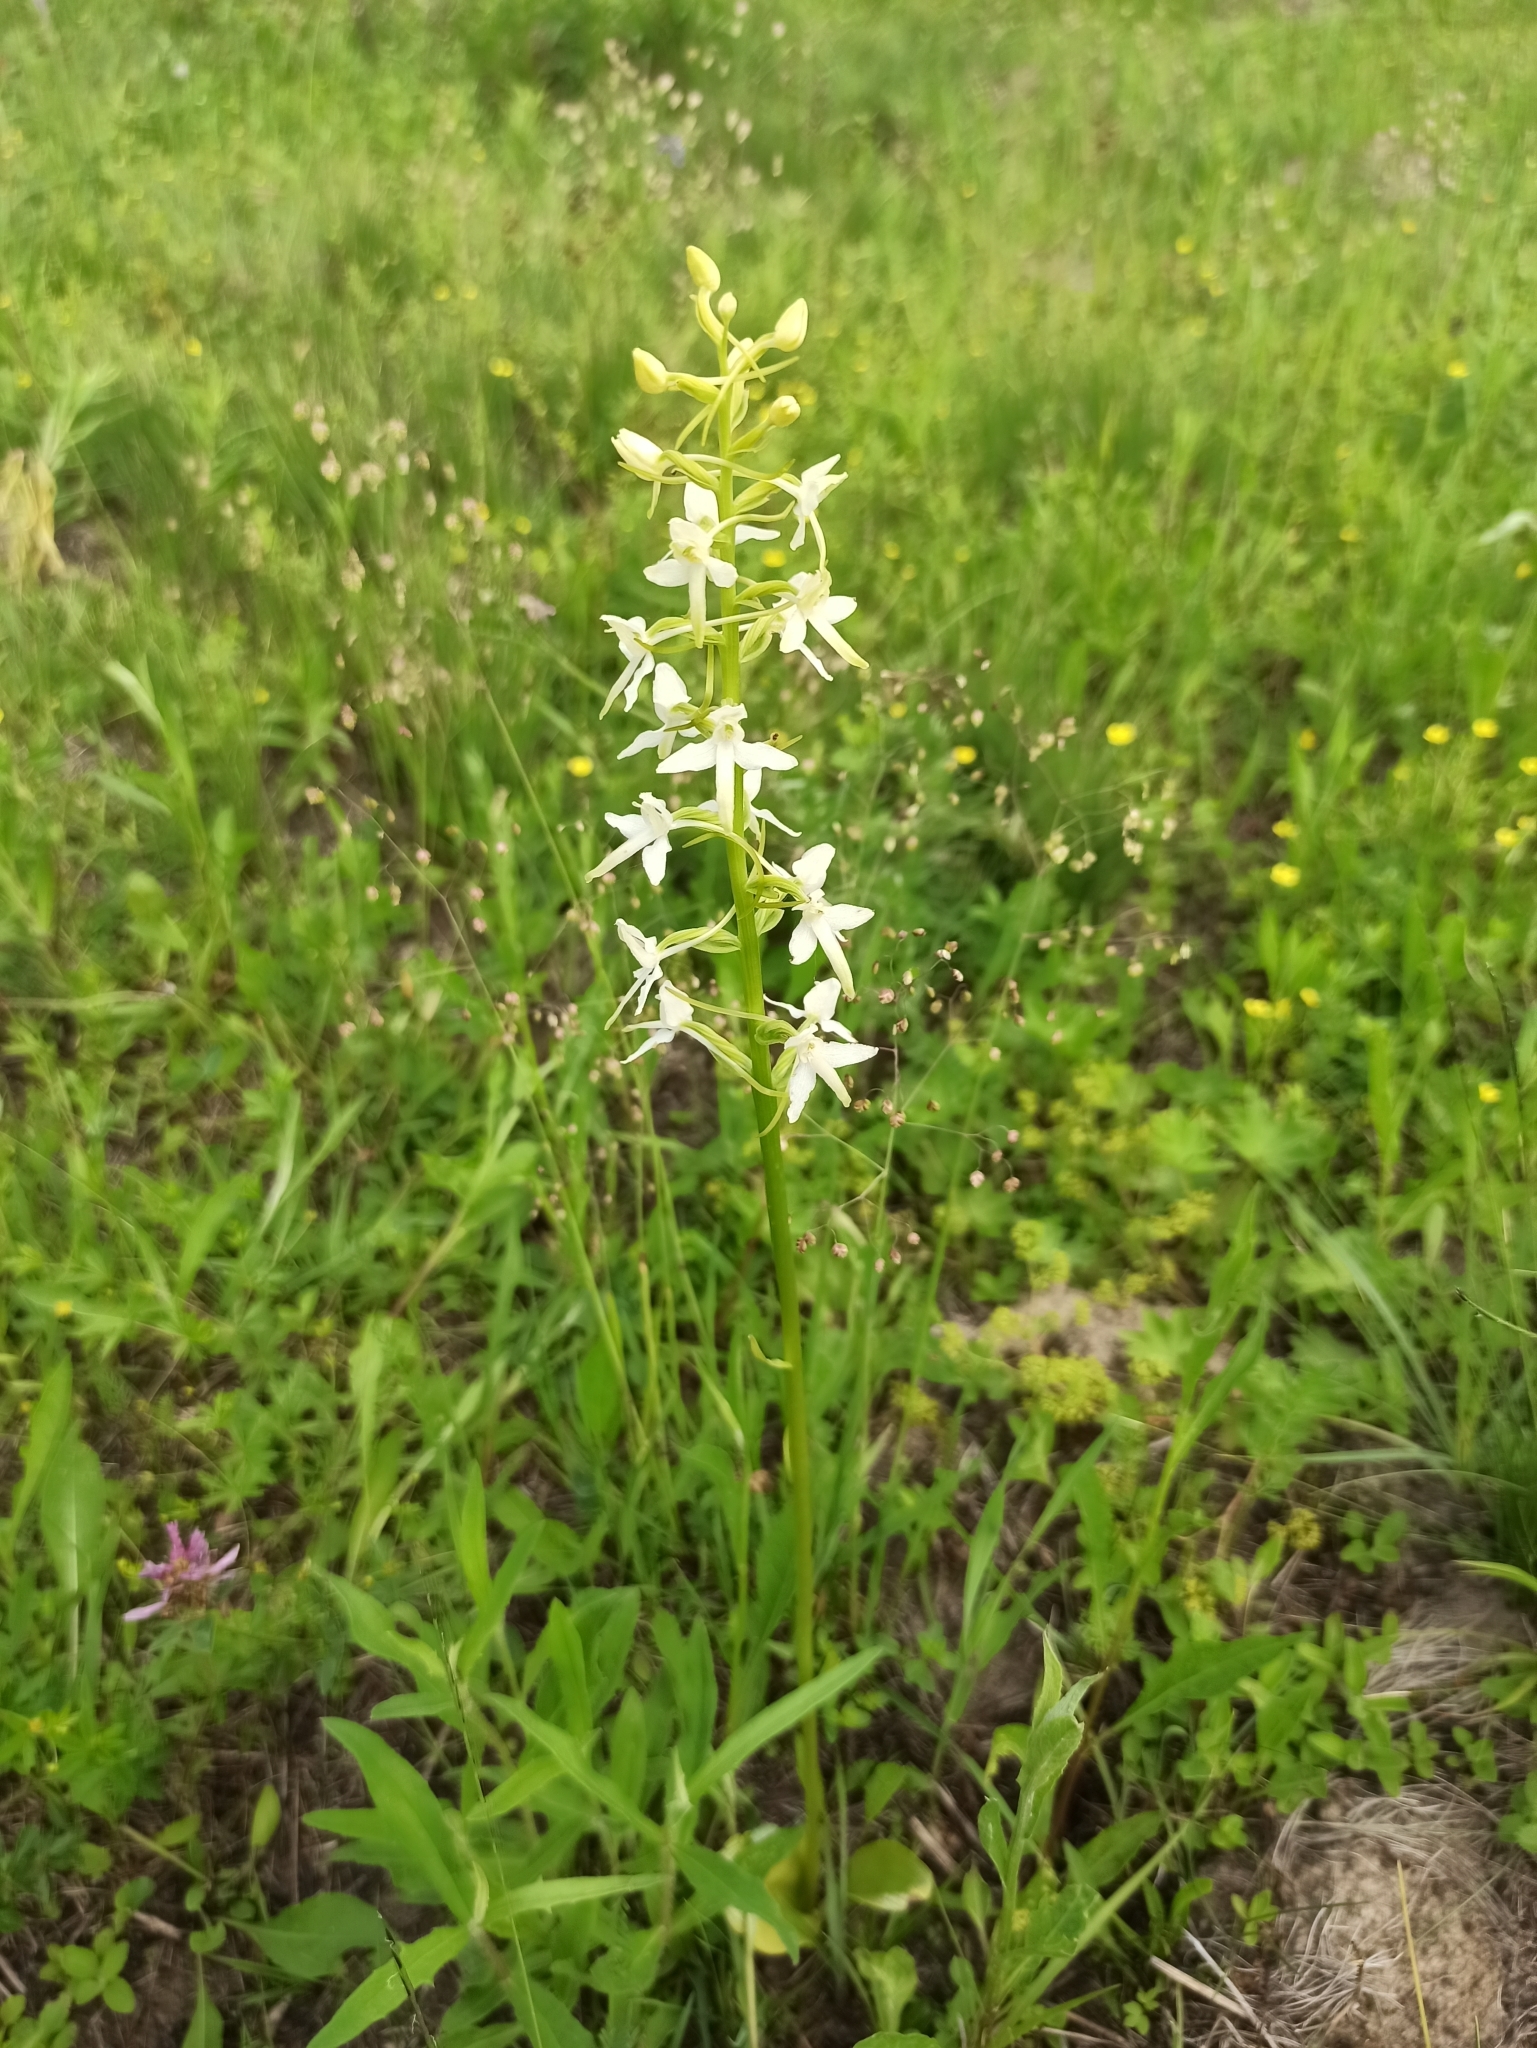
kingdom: Plantae
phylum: Tracheophyta
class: Liliopsida
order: Asparagales
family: Orchidaceae
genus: Platanthera
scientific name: Platanthera bifolia
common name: Lesser butterfly-orchid
